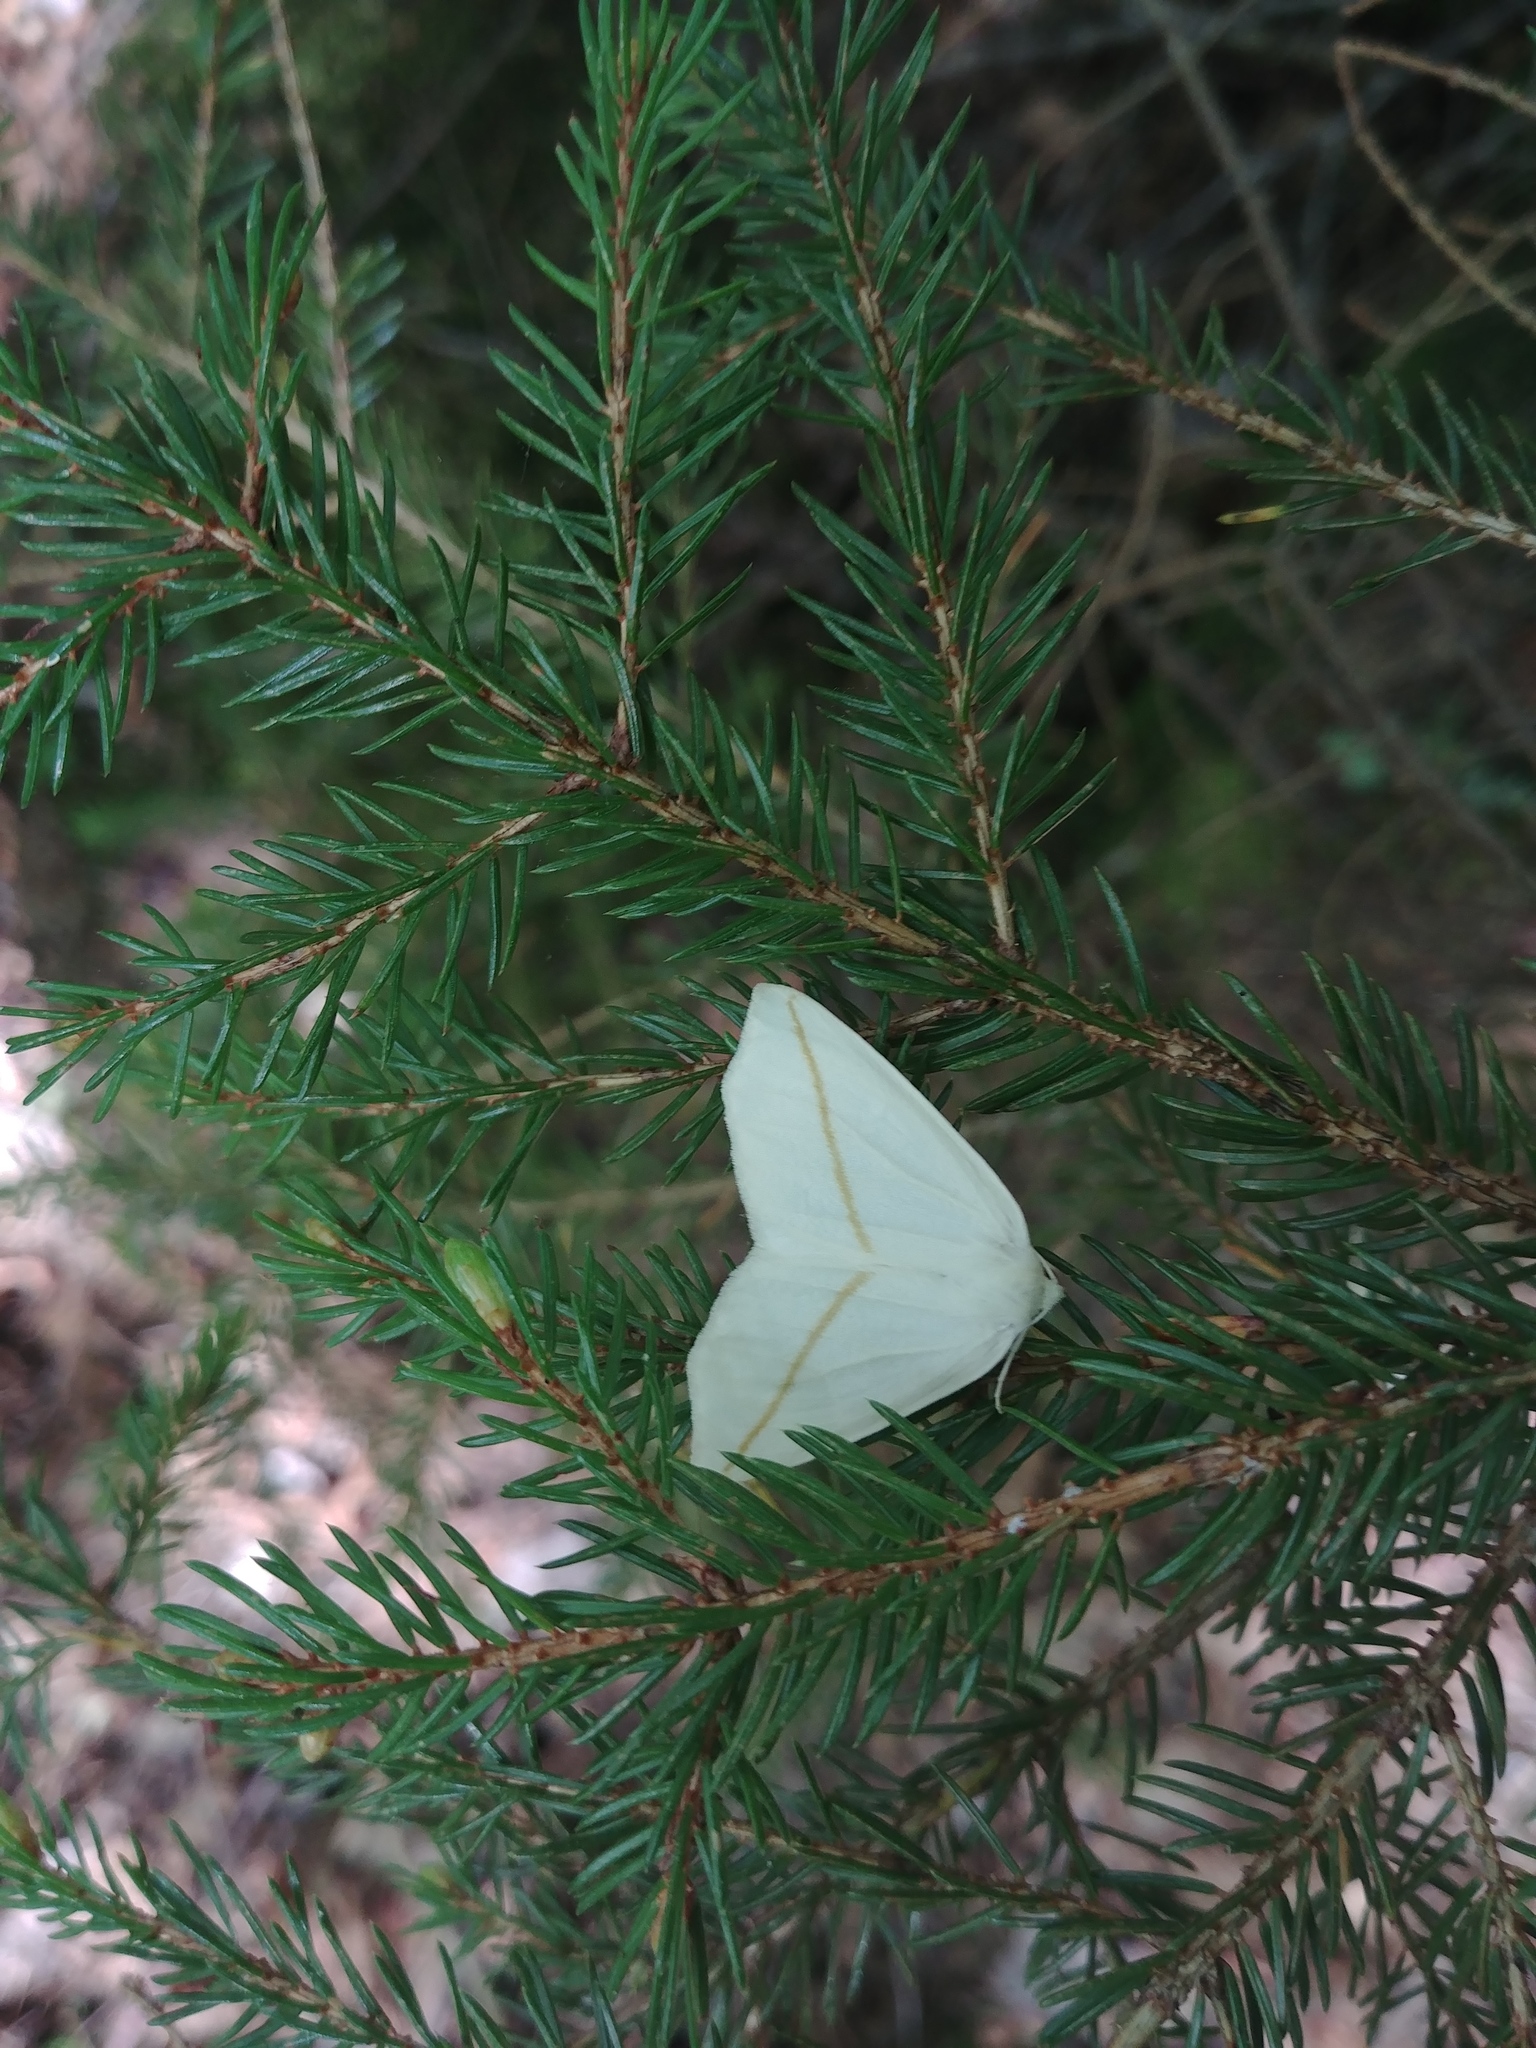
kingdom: Animalia
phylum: Arthropoda
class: Insecta
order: Lepidoptera
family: Geometridae
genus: Tetracis
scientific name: Tetracis cachexiata
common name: White slant-line
